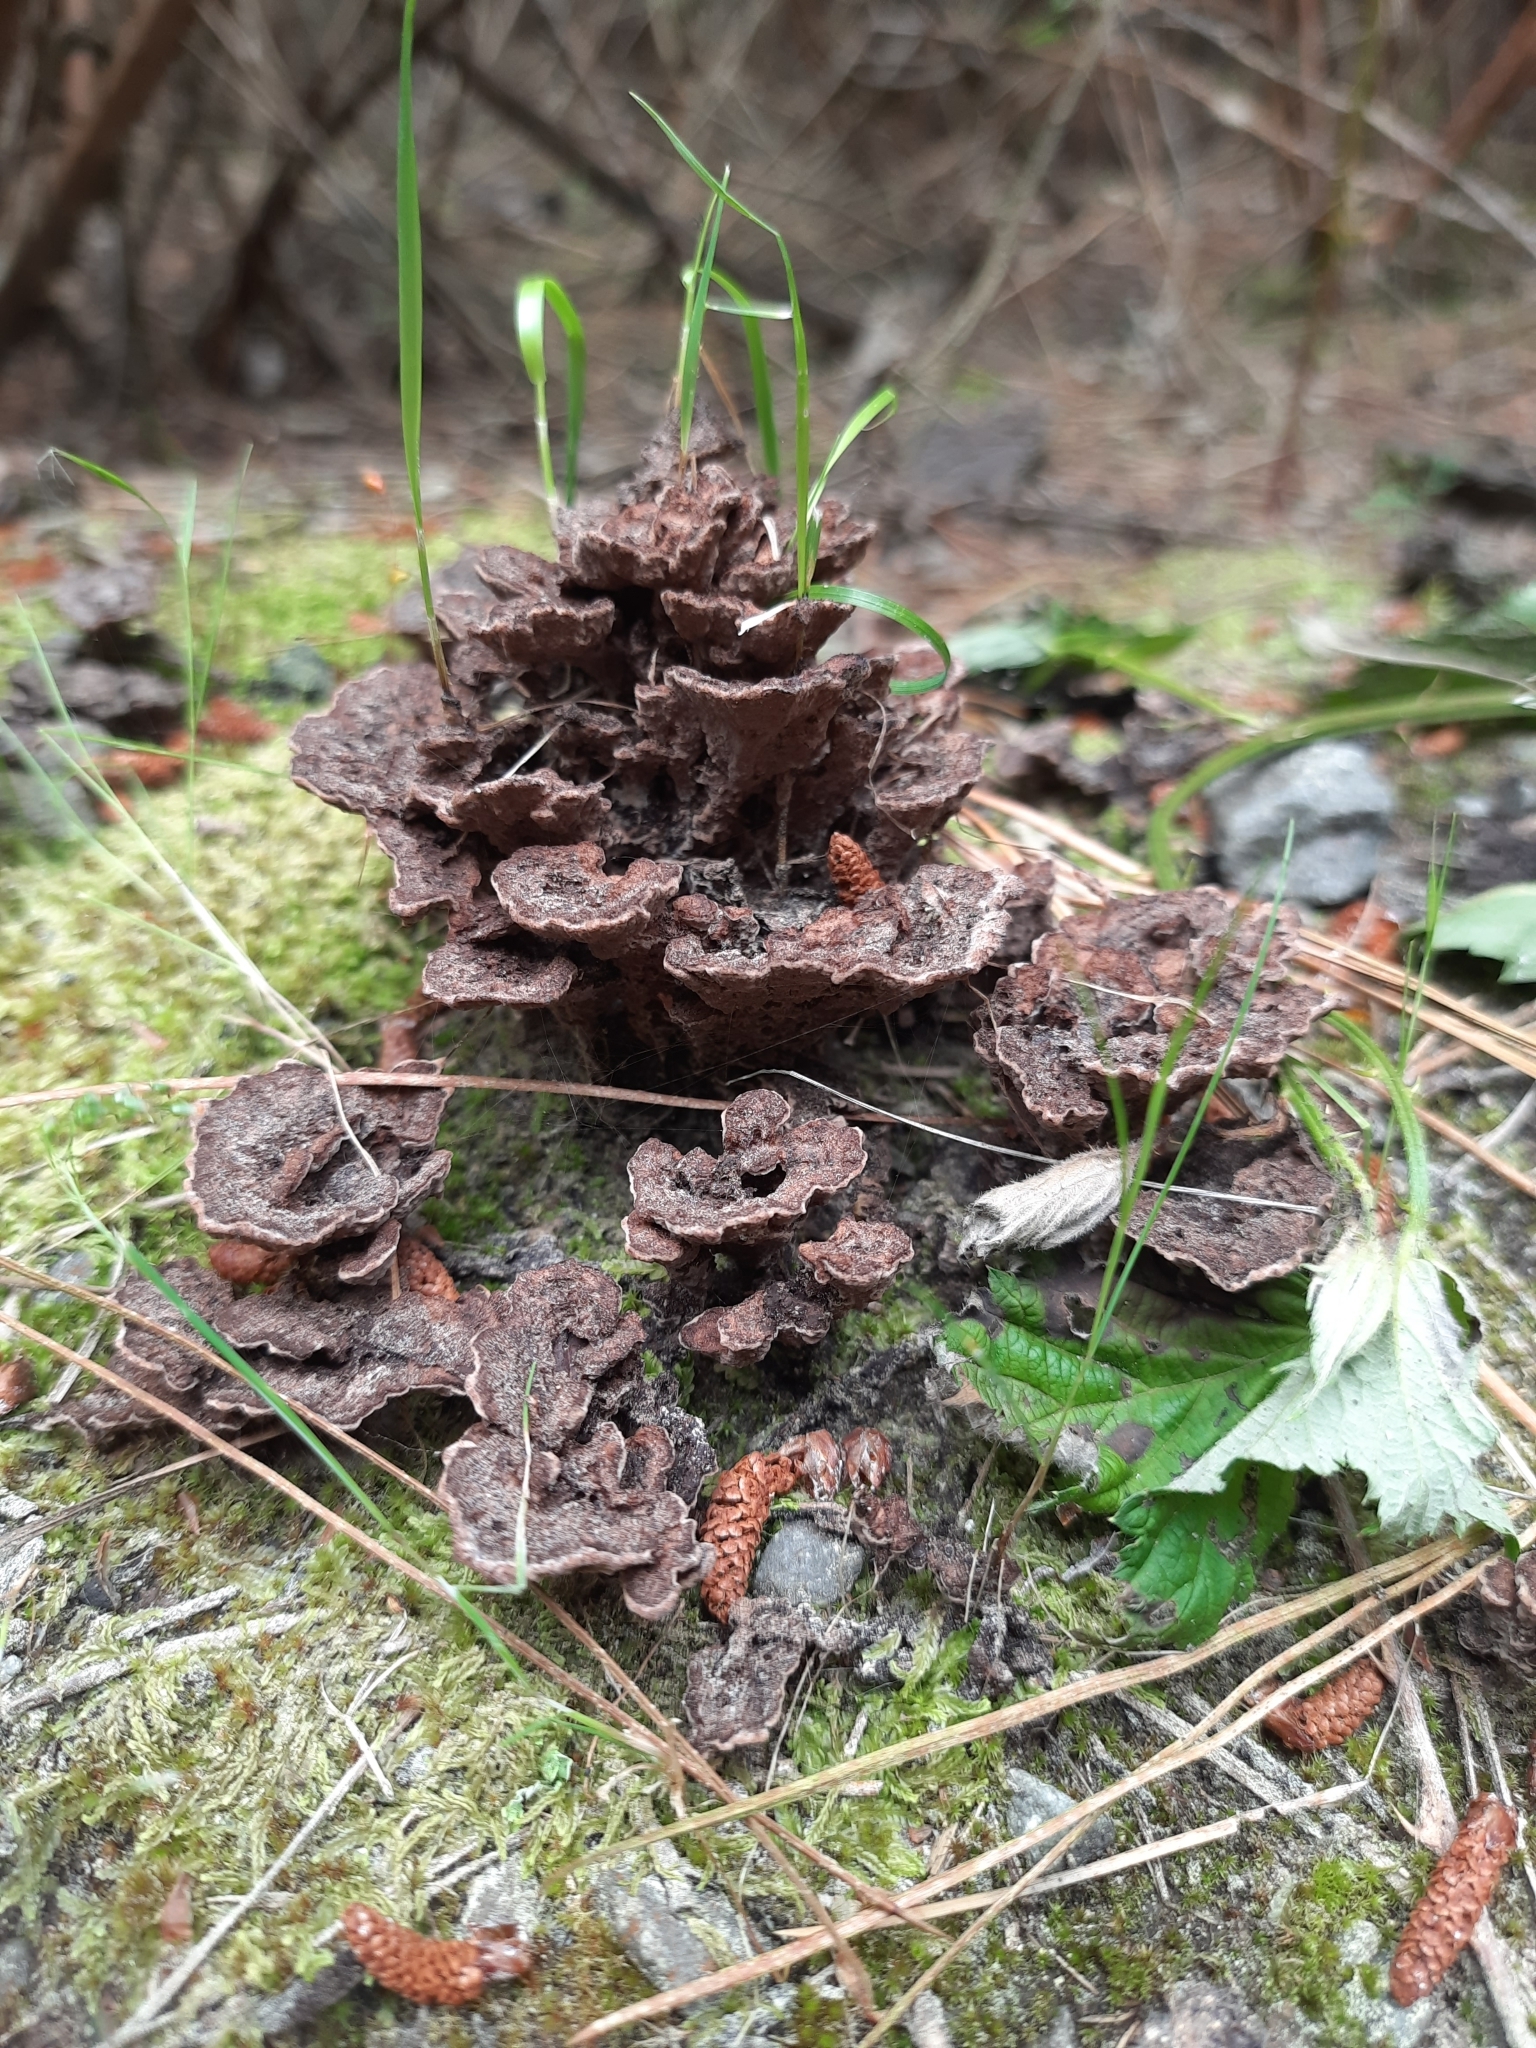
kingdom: Fungi
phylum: Basidiomycota
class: Agaricomycetes
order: Thelephorales
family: Thelephoraceae
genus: Thelephora
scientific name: Thelephora terrestris
